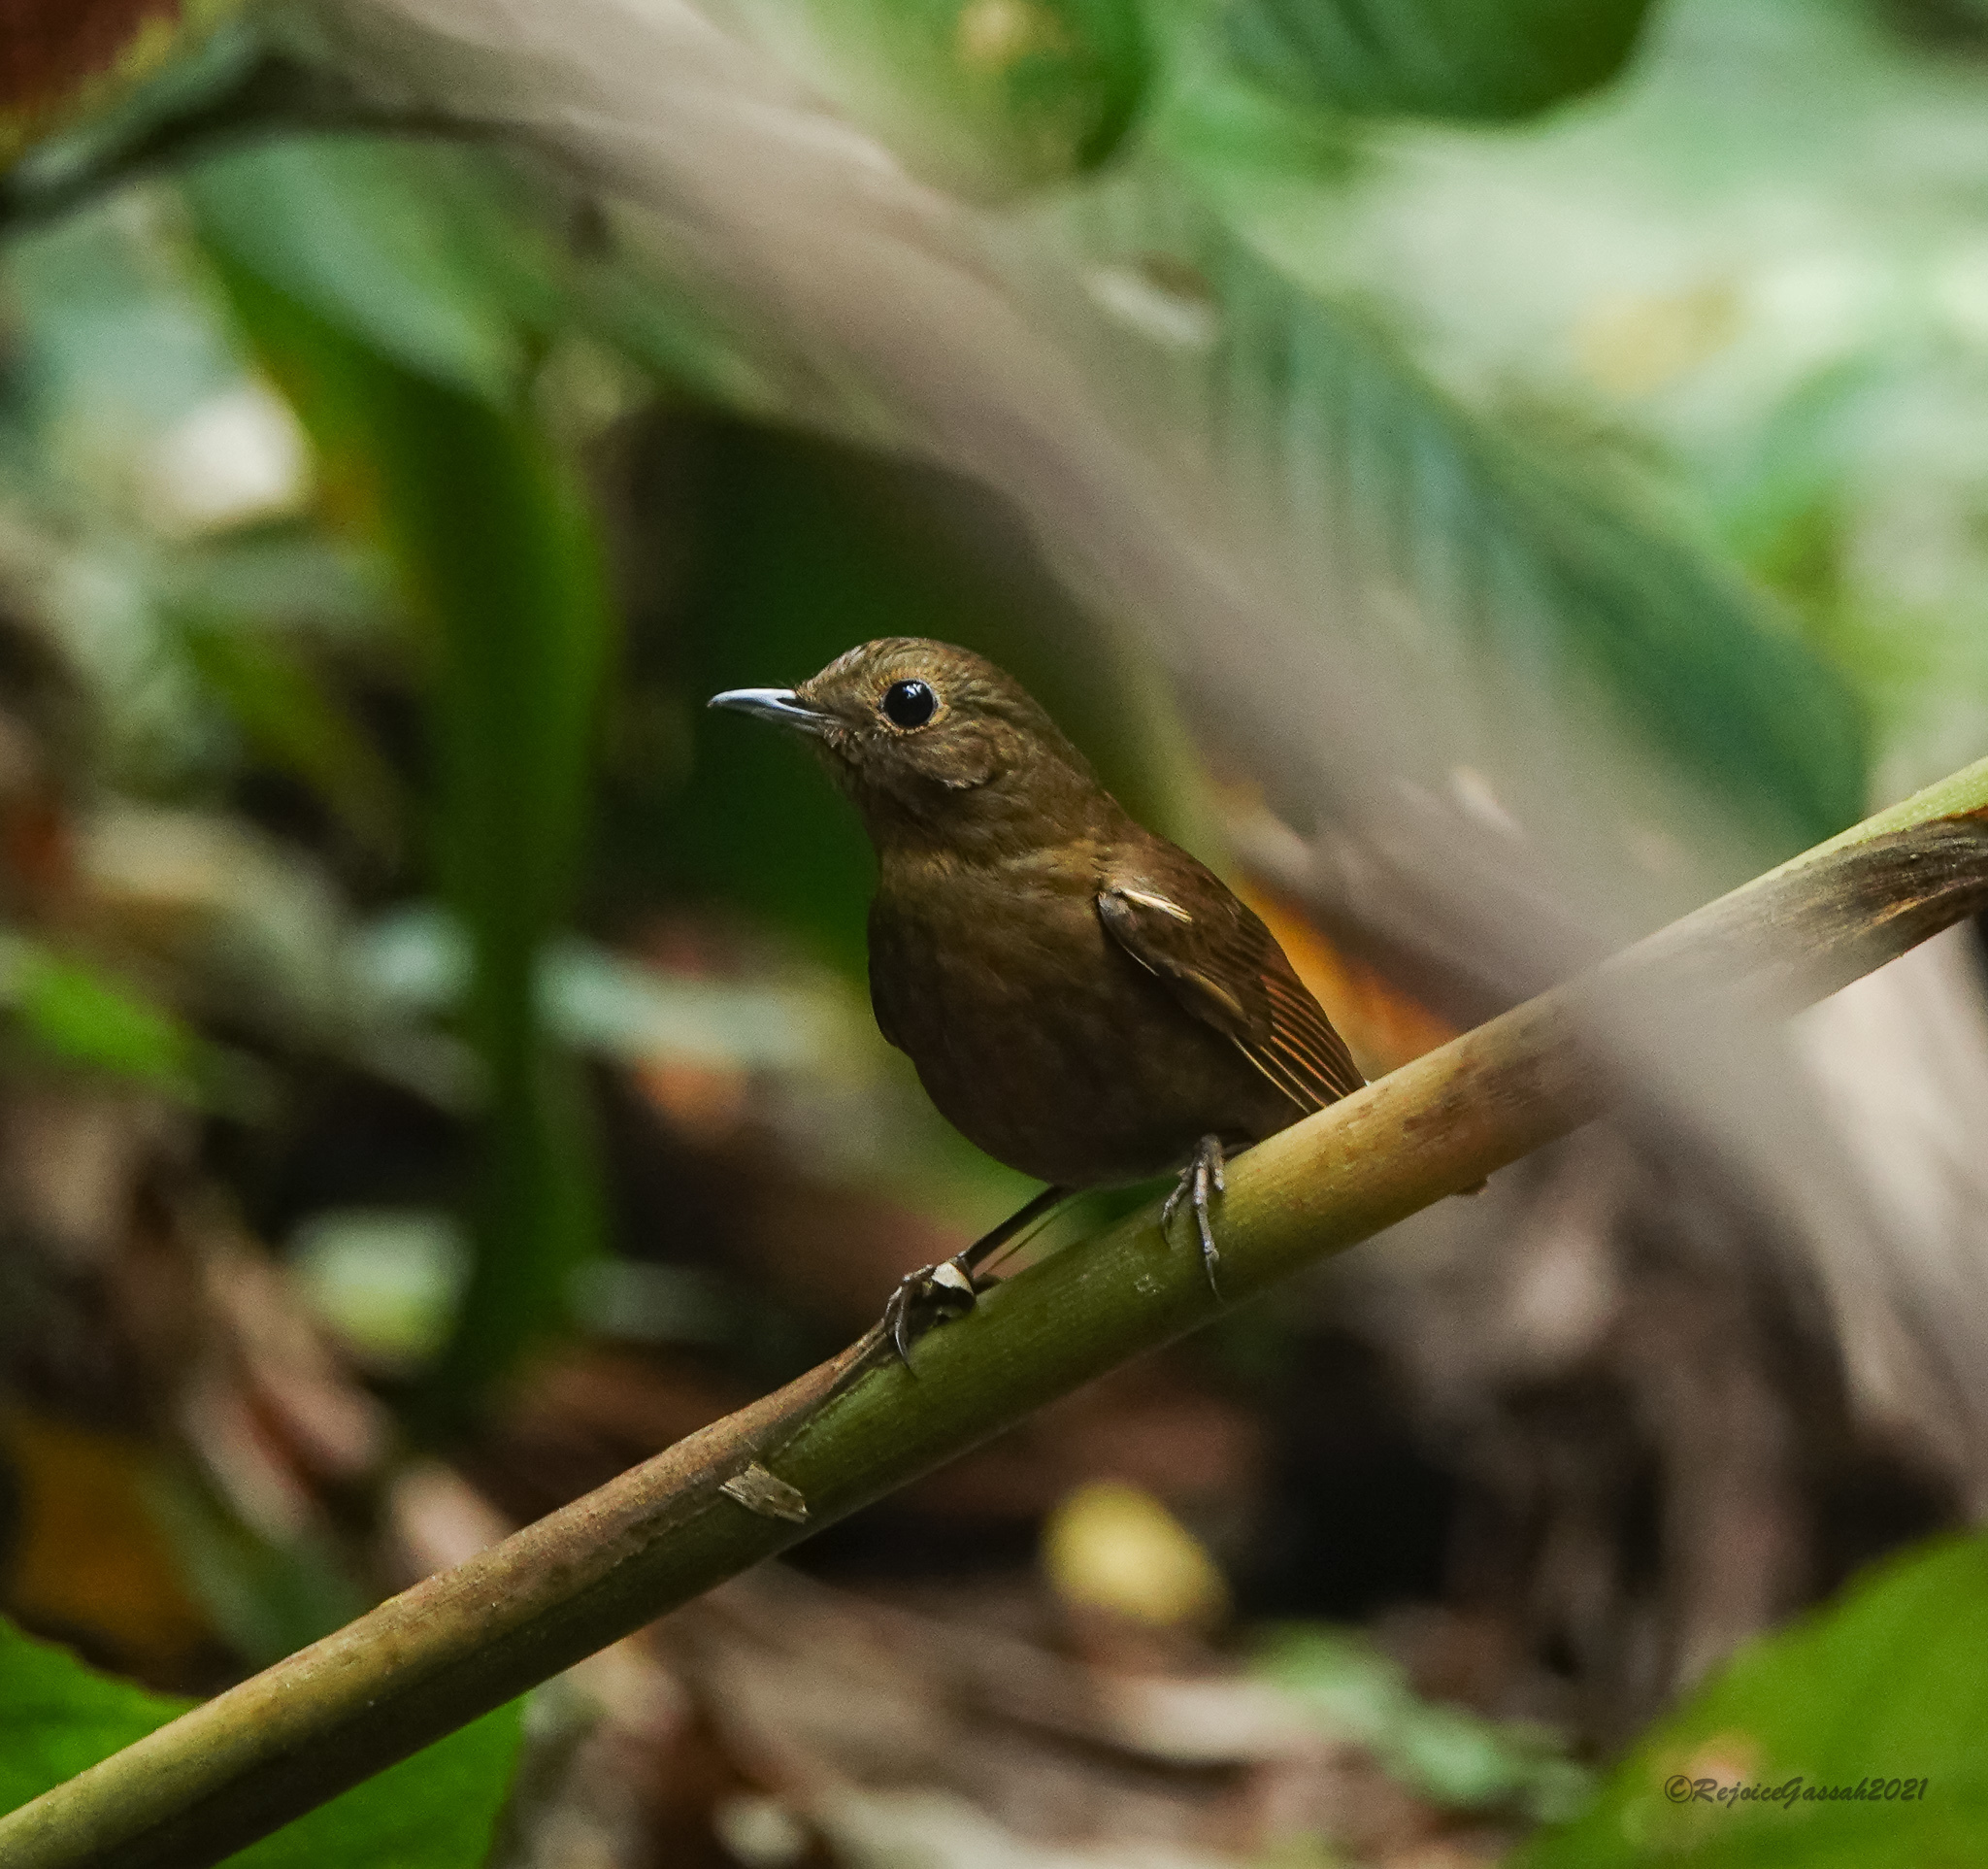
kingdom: Animalia
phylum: Chordata
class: Aves
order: Passeriformes
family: Muscicapidae
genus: Myiomela
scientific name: Myiomela leucura
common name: White-tailed robin
